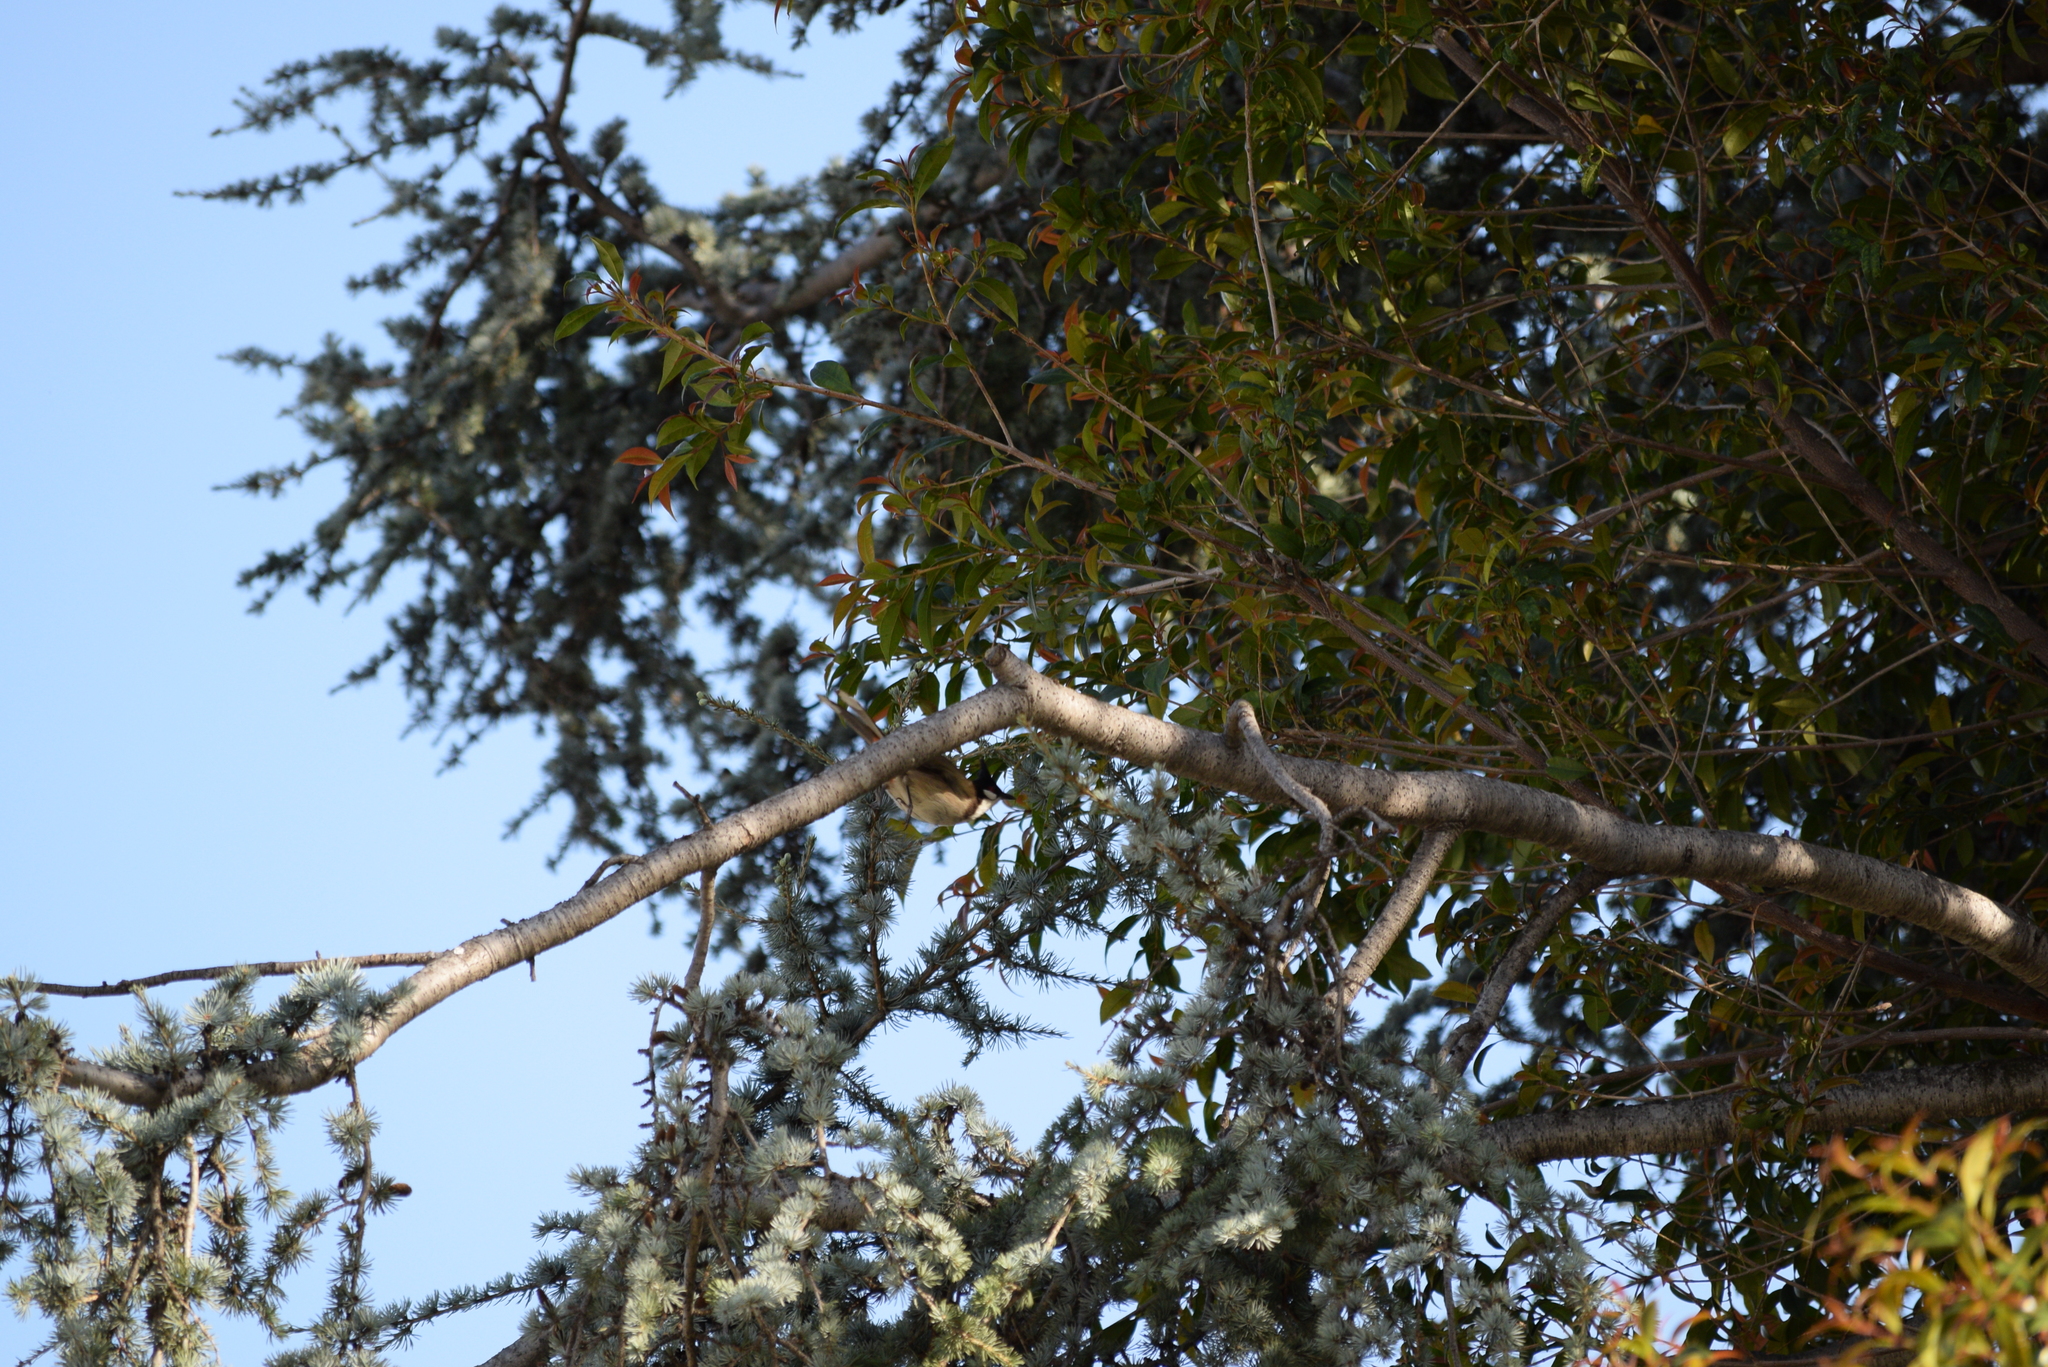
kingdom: Animalia
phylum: Chordata
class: Aves
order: Passeriformes
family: Pycnonotidae
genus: Pycnonotus
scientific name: Pycnonotus jocosus
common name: Red-whiskered bulbul
